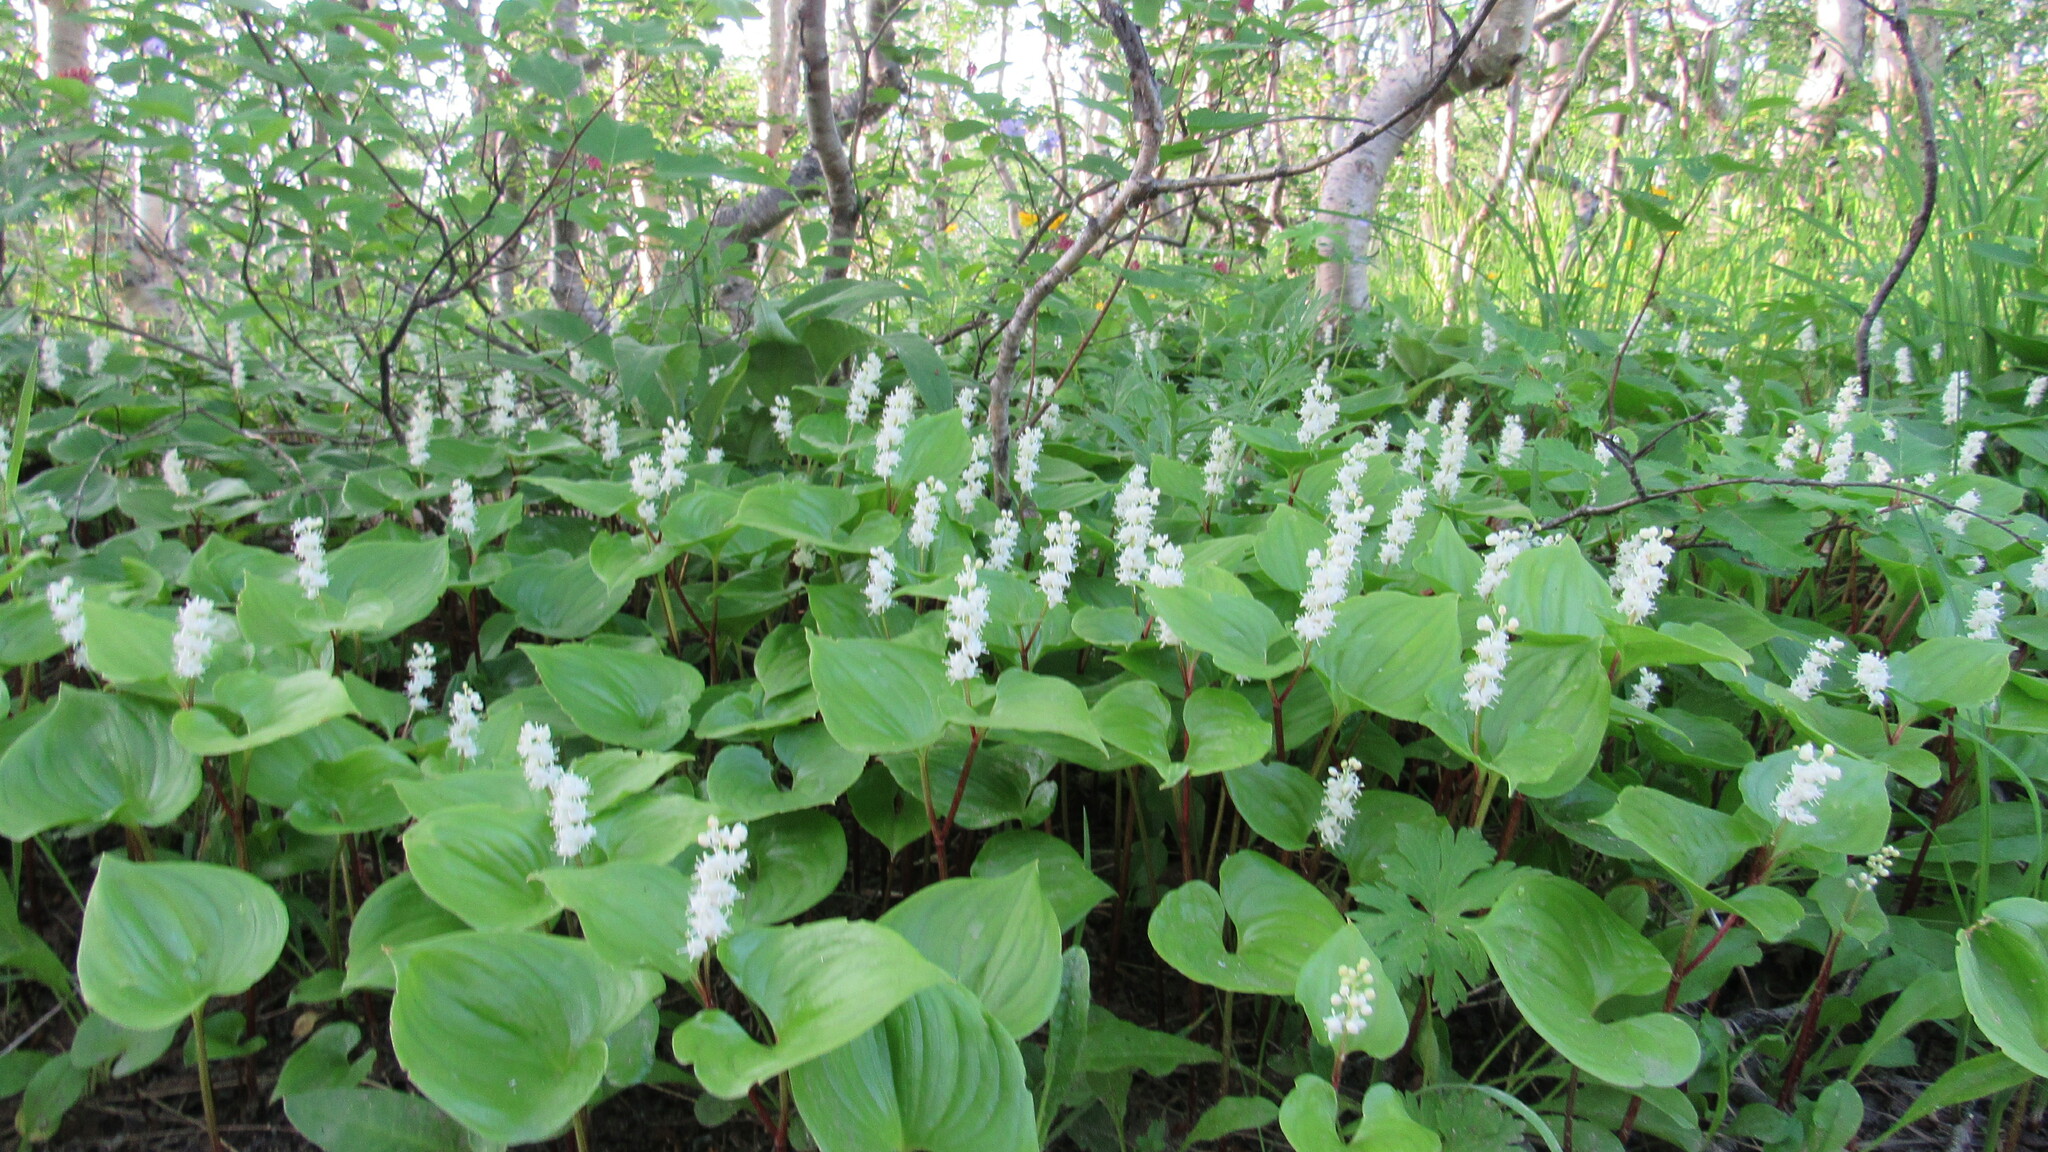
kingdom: Plantae
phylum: Tracheophyta
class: Liliopsida
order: Asparagales
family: Asparagaceae
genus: Maianthemum
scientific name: Maianthemum dilatatum
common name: False lily-of-the-valley
